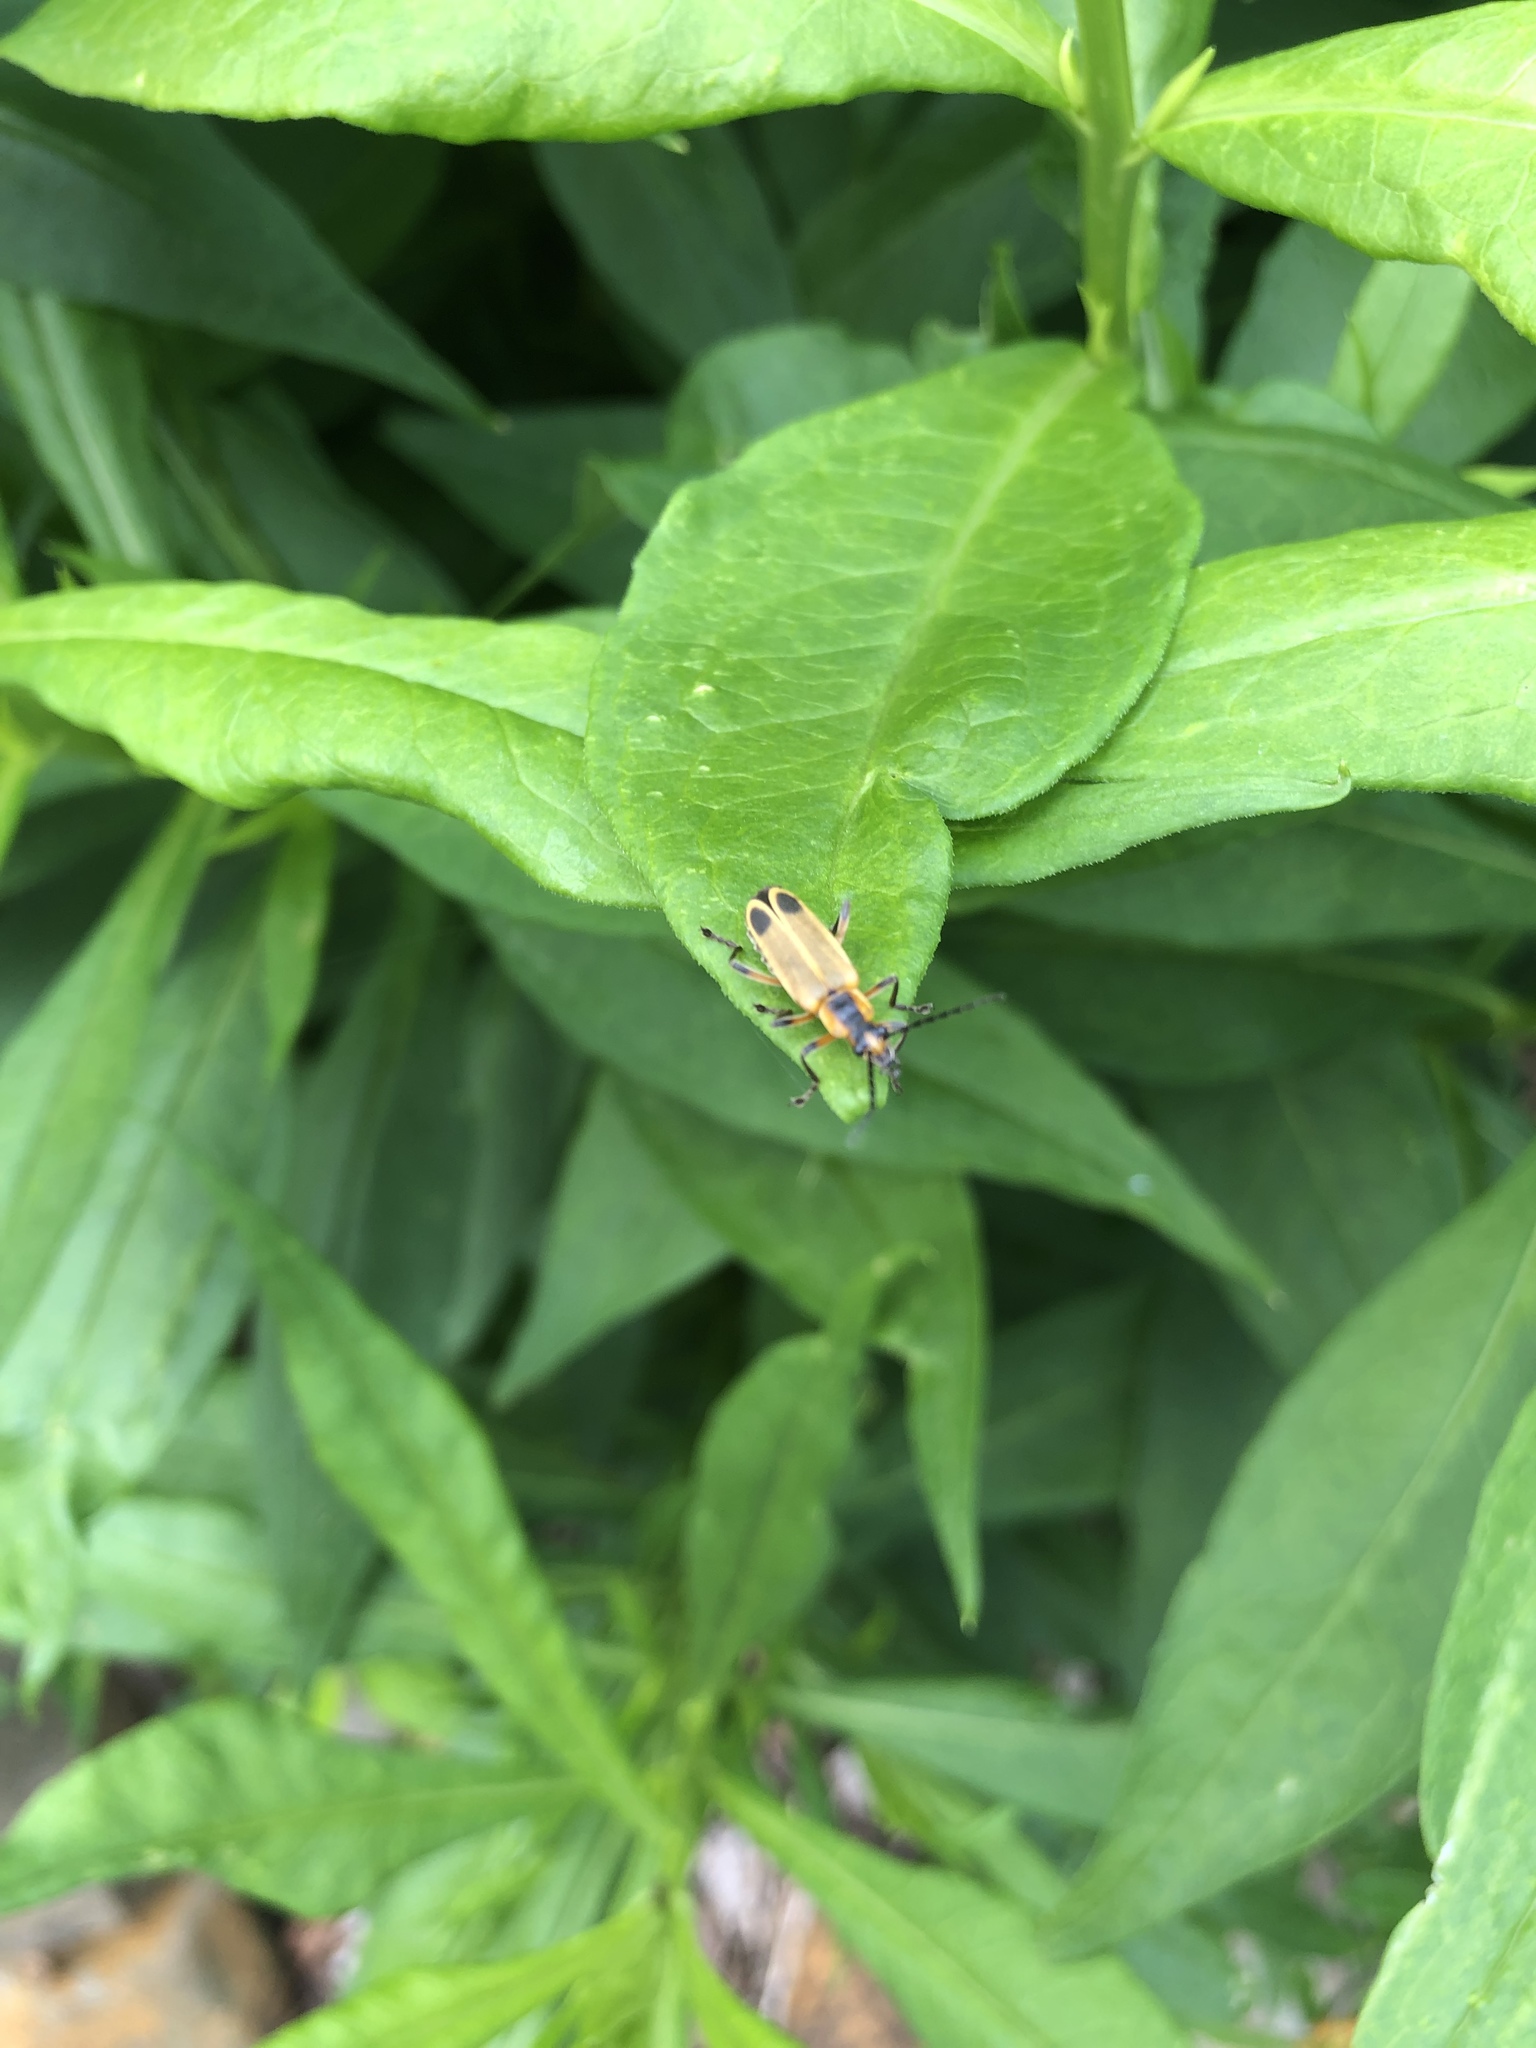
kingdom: Animalia
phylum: Arthropoda
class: Insecta
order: Coleoptera
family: Cantharidae
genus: Chauliognathus
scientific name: Chauliognathus marginatus
